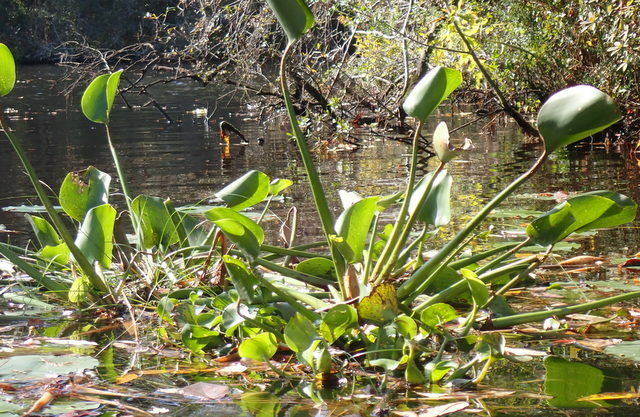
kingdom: Plantae
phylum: Tracheophyta
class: Liliopsida
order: Commelinales
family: Pontederiaceae
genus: Pontederia
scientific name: Pontederia crassipes
